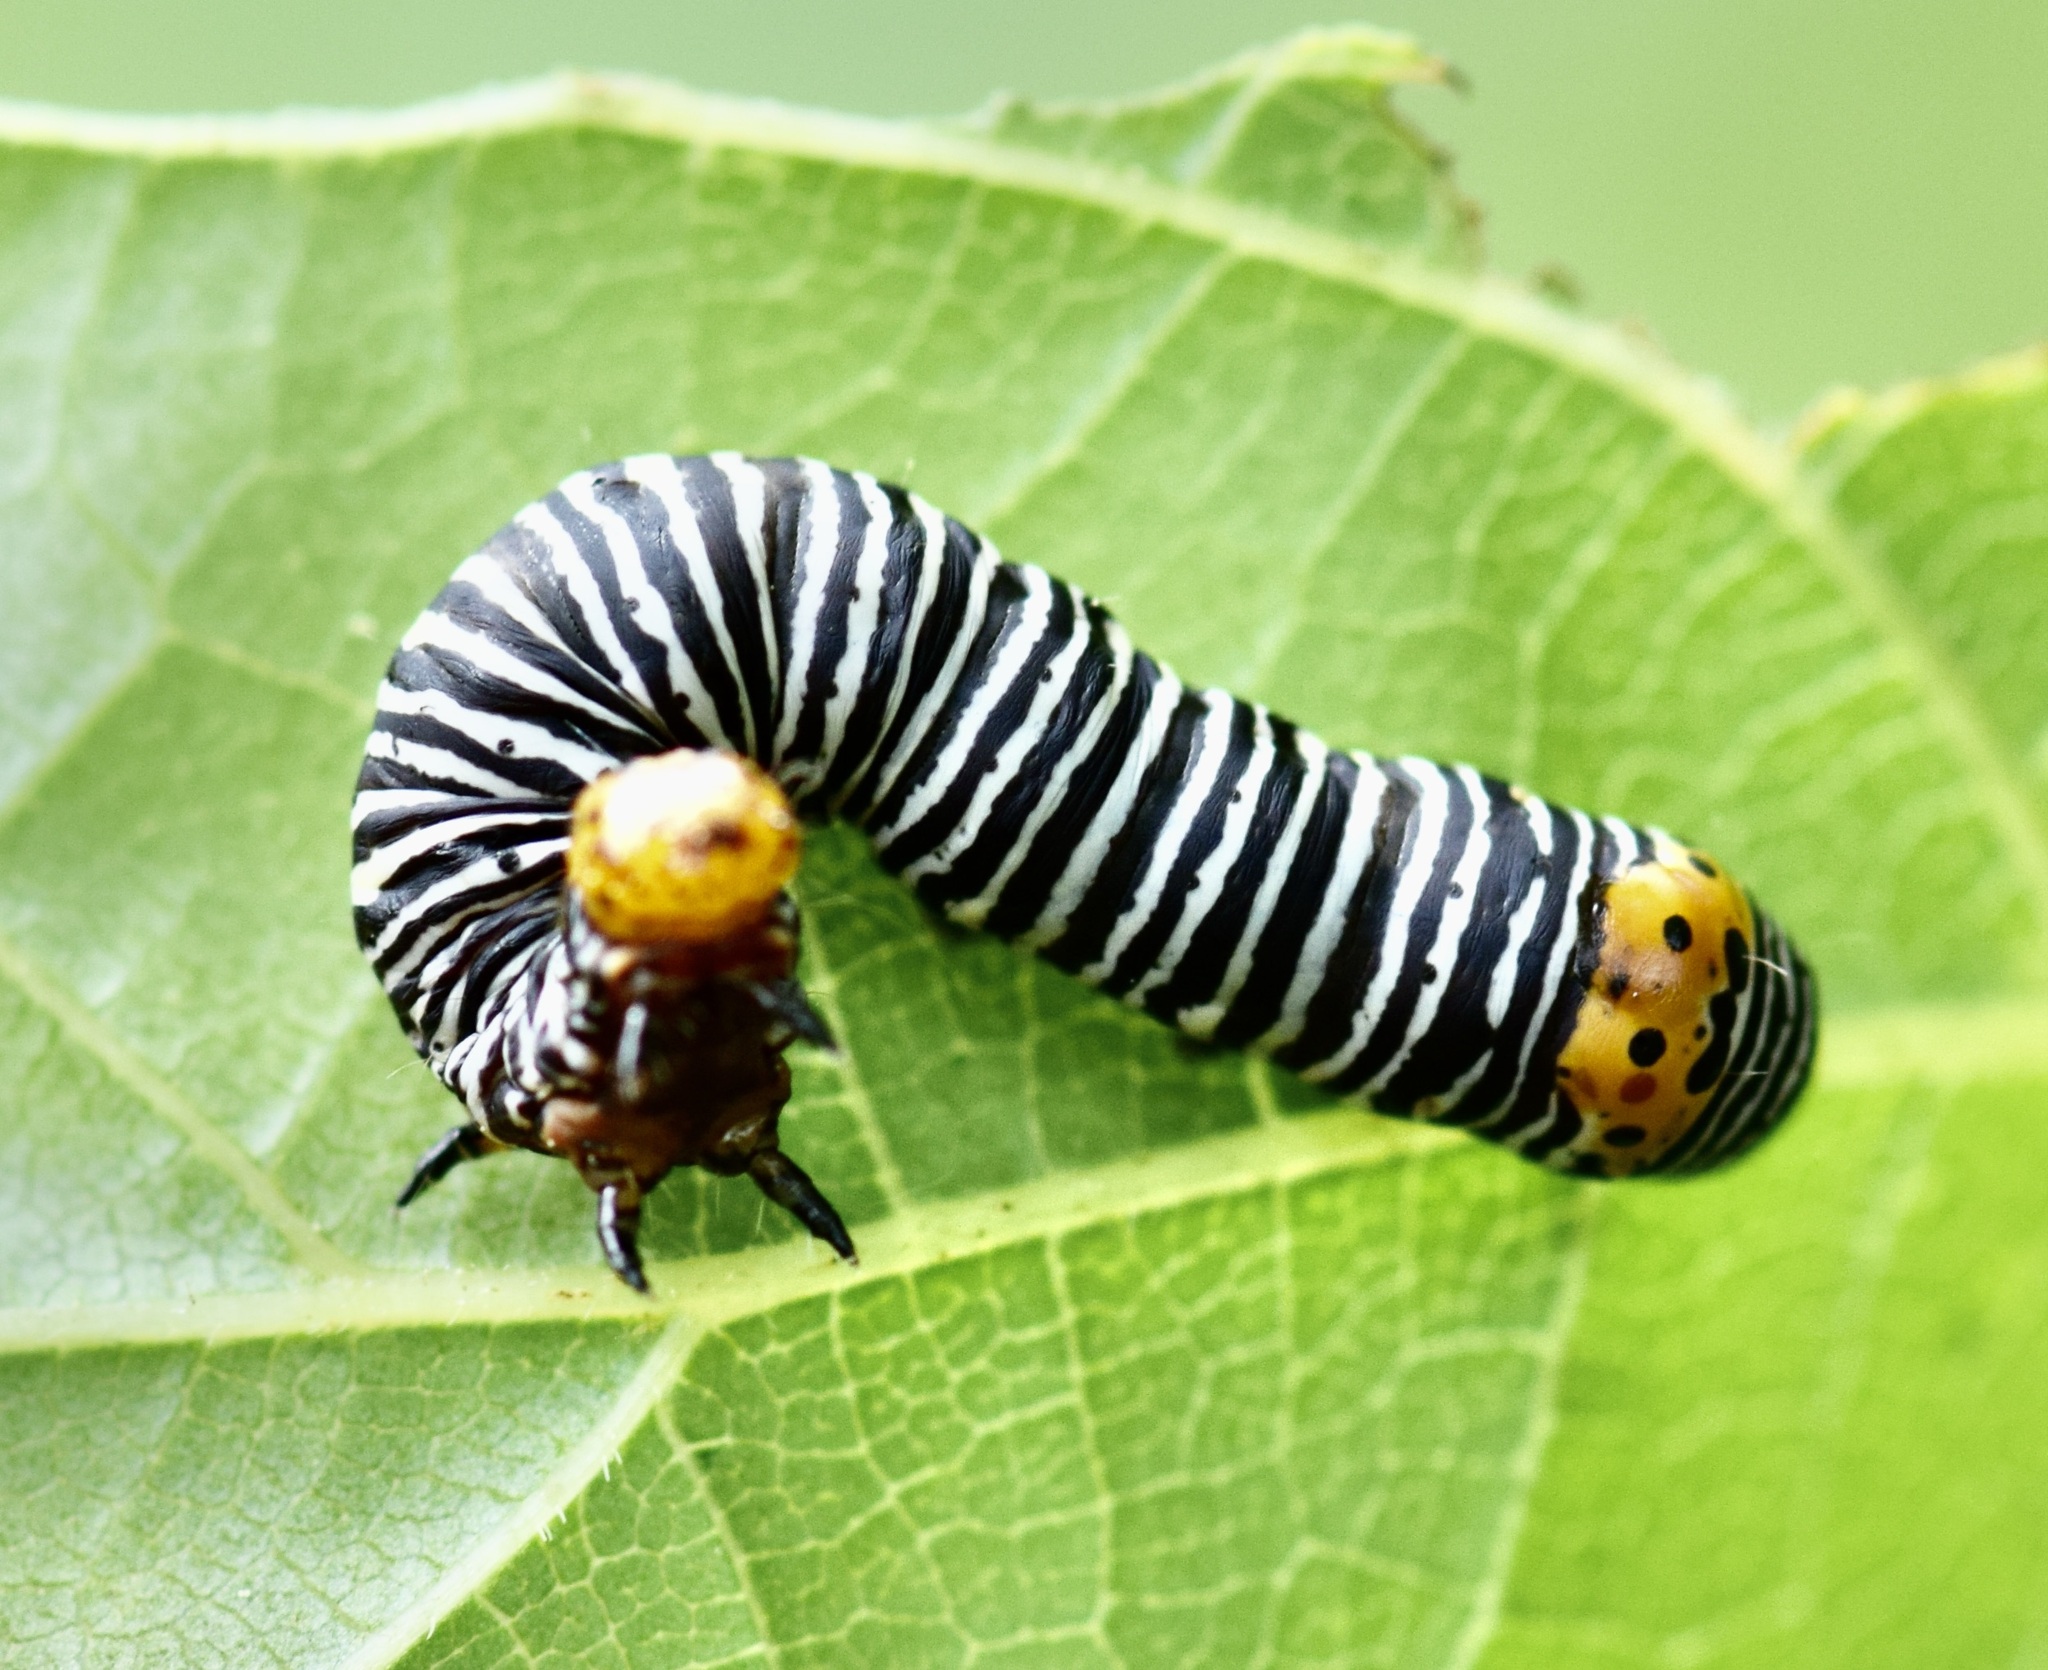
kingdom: Animalia
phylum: Arthropoda
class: Insecta
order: Lepidoptera
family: Noctuidae
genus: Psychomorpha
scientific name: Psychomorpha epimenis
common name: Grapevine epimenis moth
